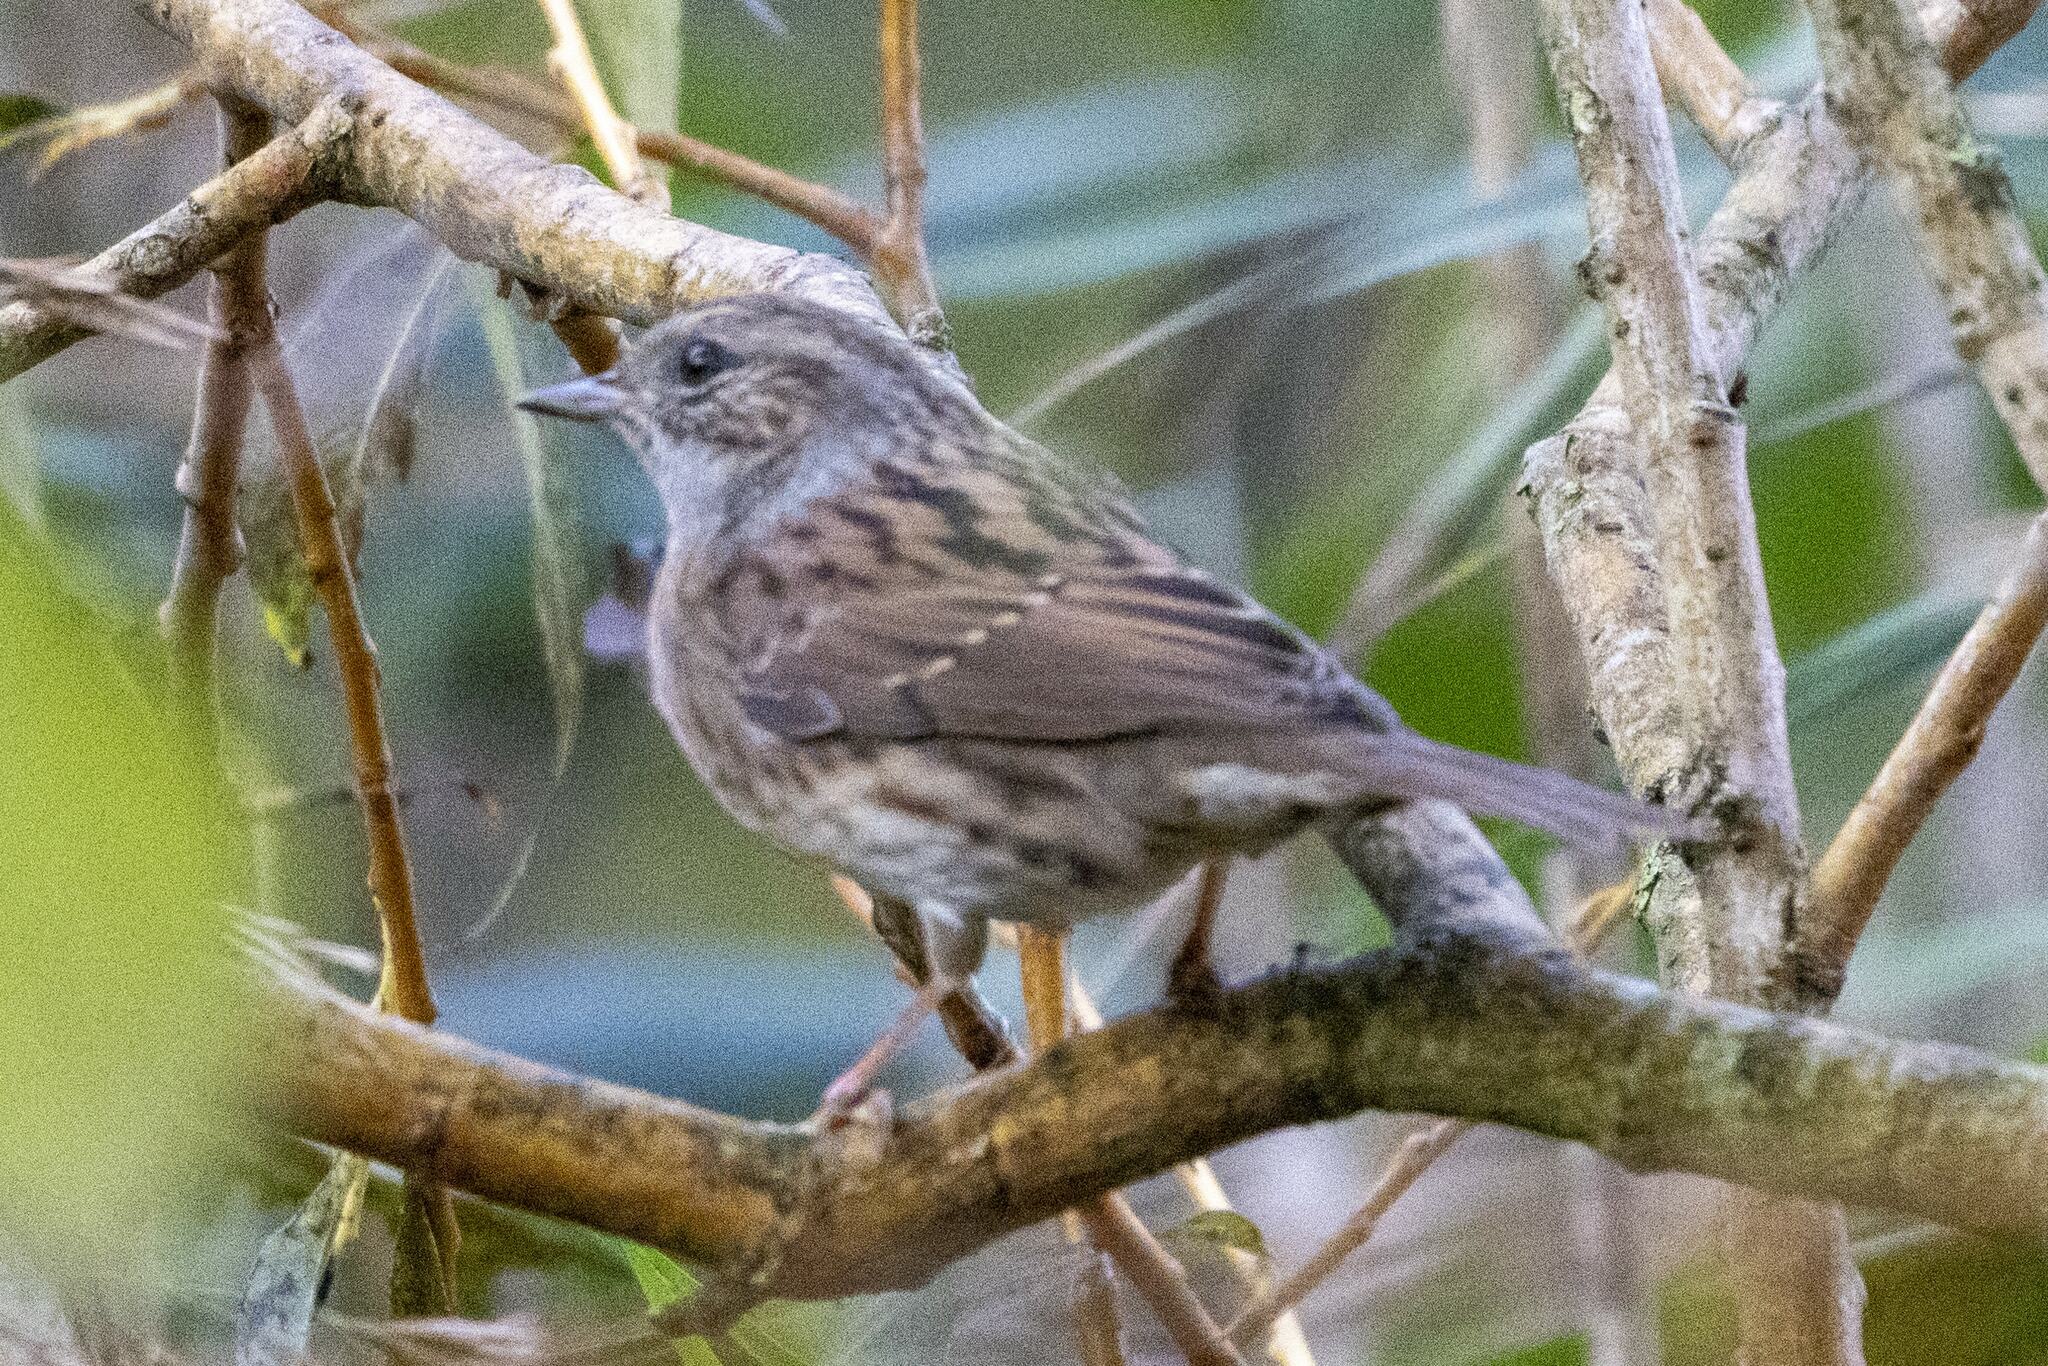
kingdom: Animalia
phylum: Chordata
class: Aves
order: Passeriformes
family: Prunellidae
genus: Prunella
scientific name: Prunella modularis
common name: Dunnock
